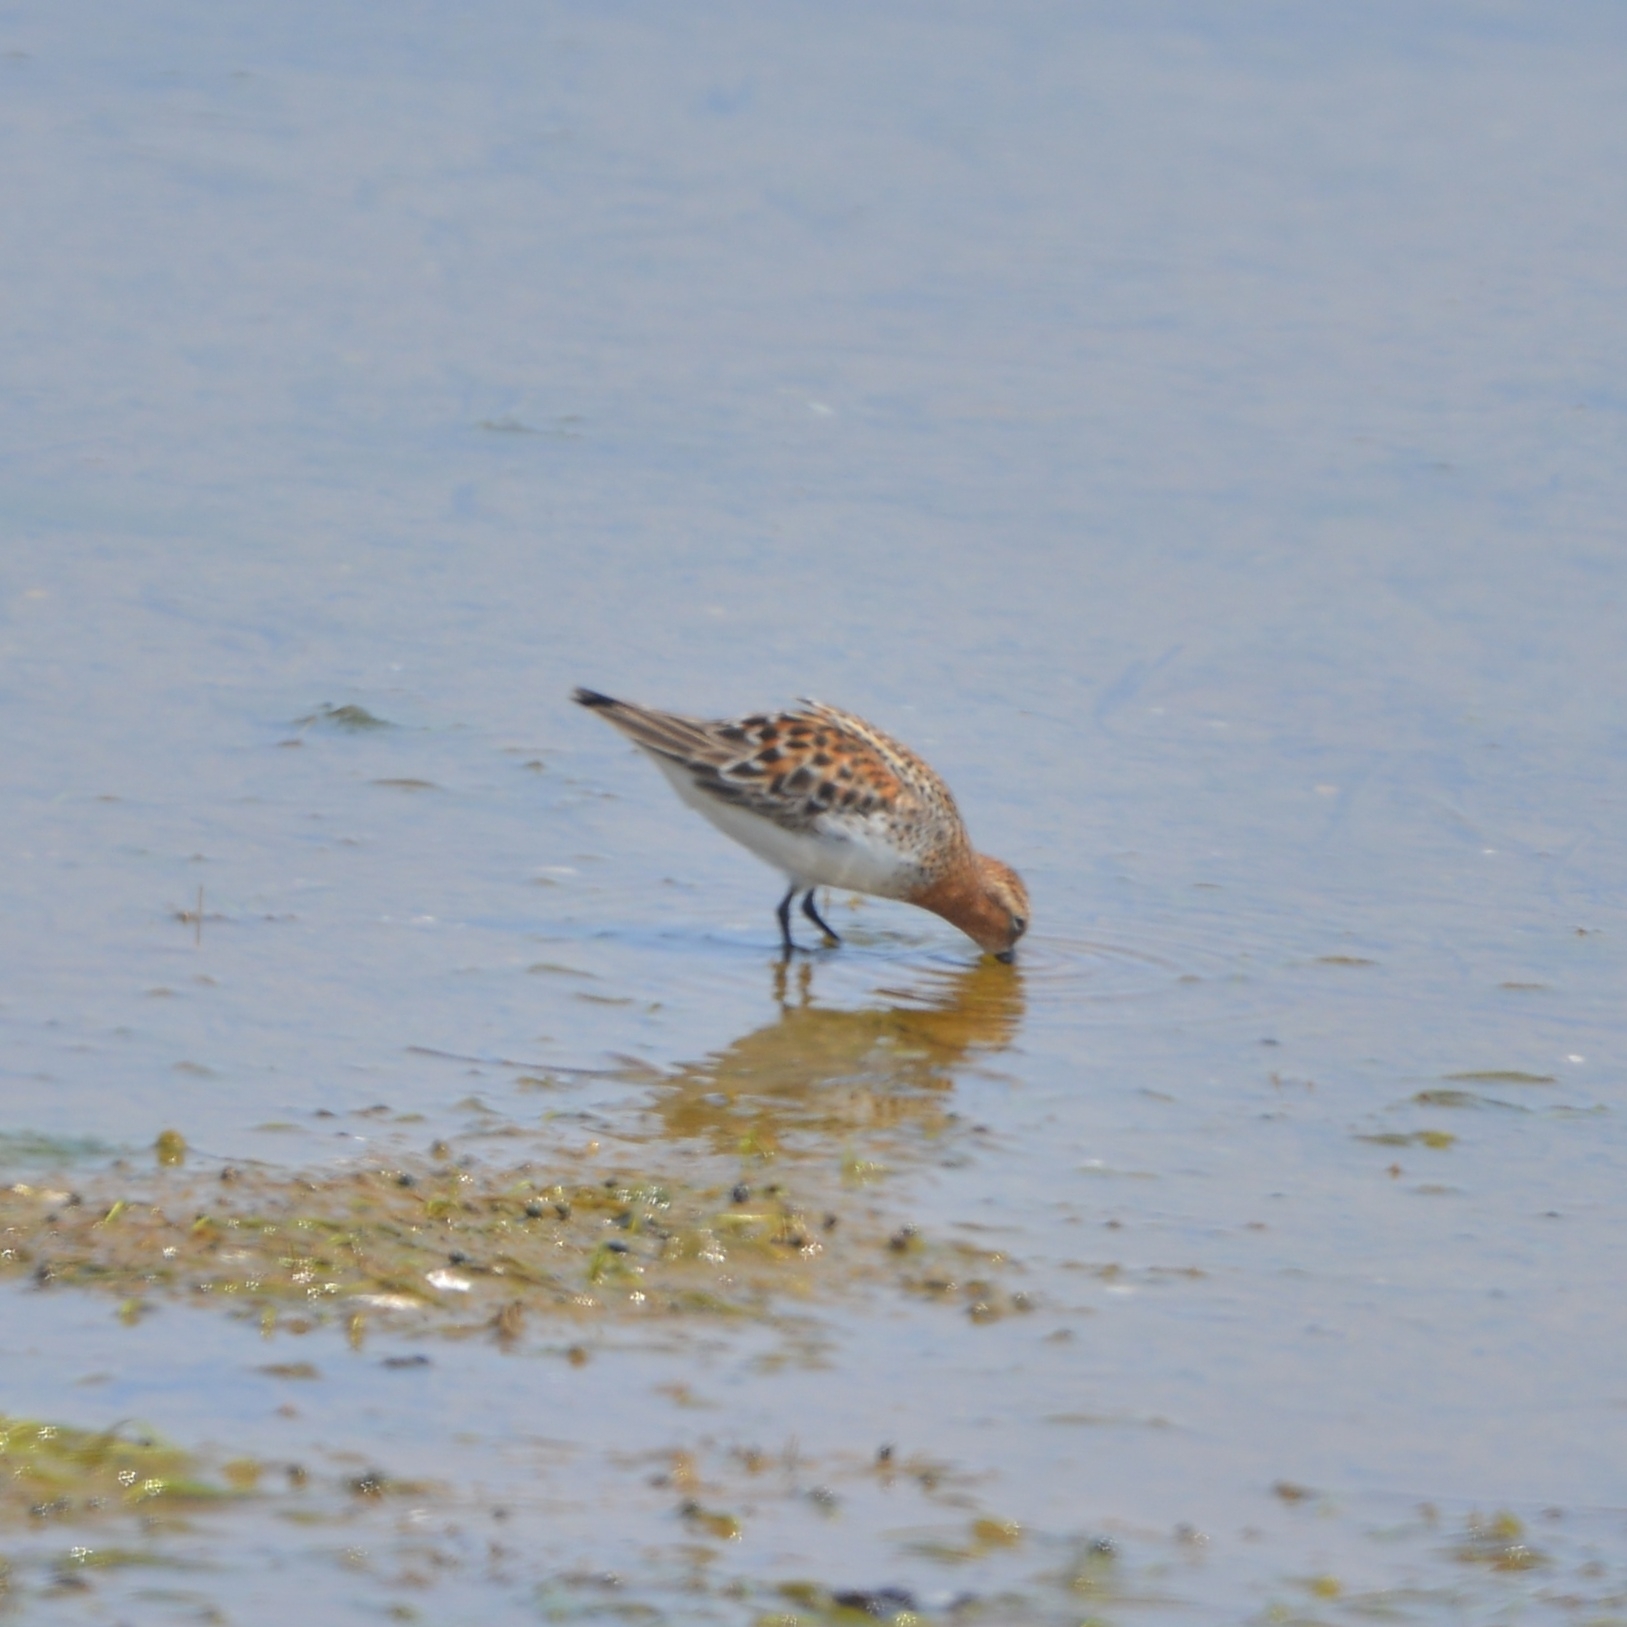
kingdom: Animalia
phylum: Chordata
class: Aves
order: Charadriiformes
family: Scolopacidae
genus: Calidris
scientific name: Calidris ruficollis
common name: Red-necked stint
